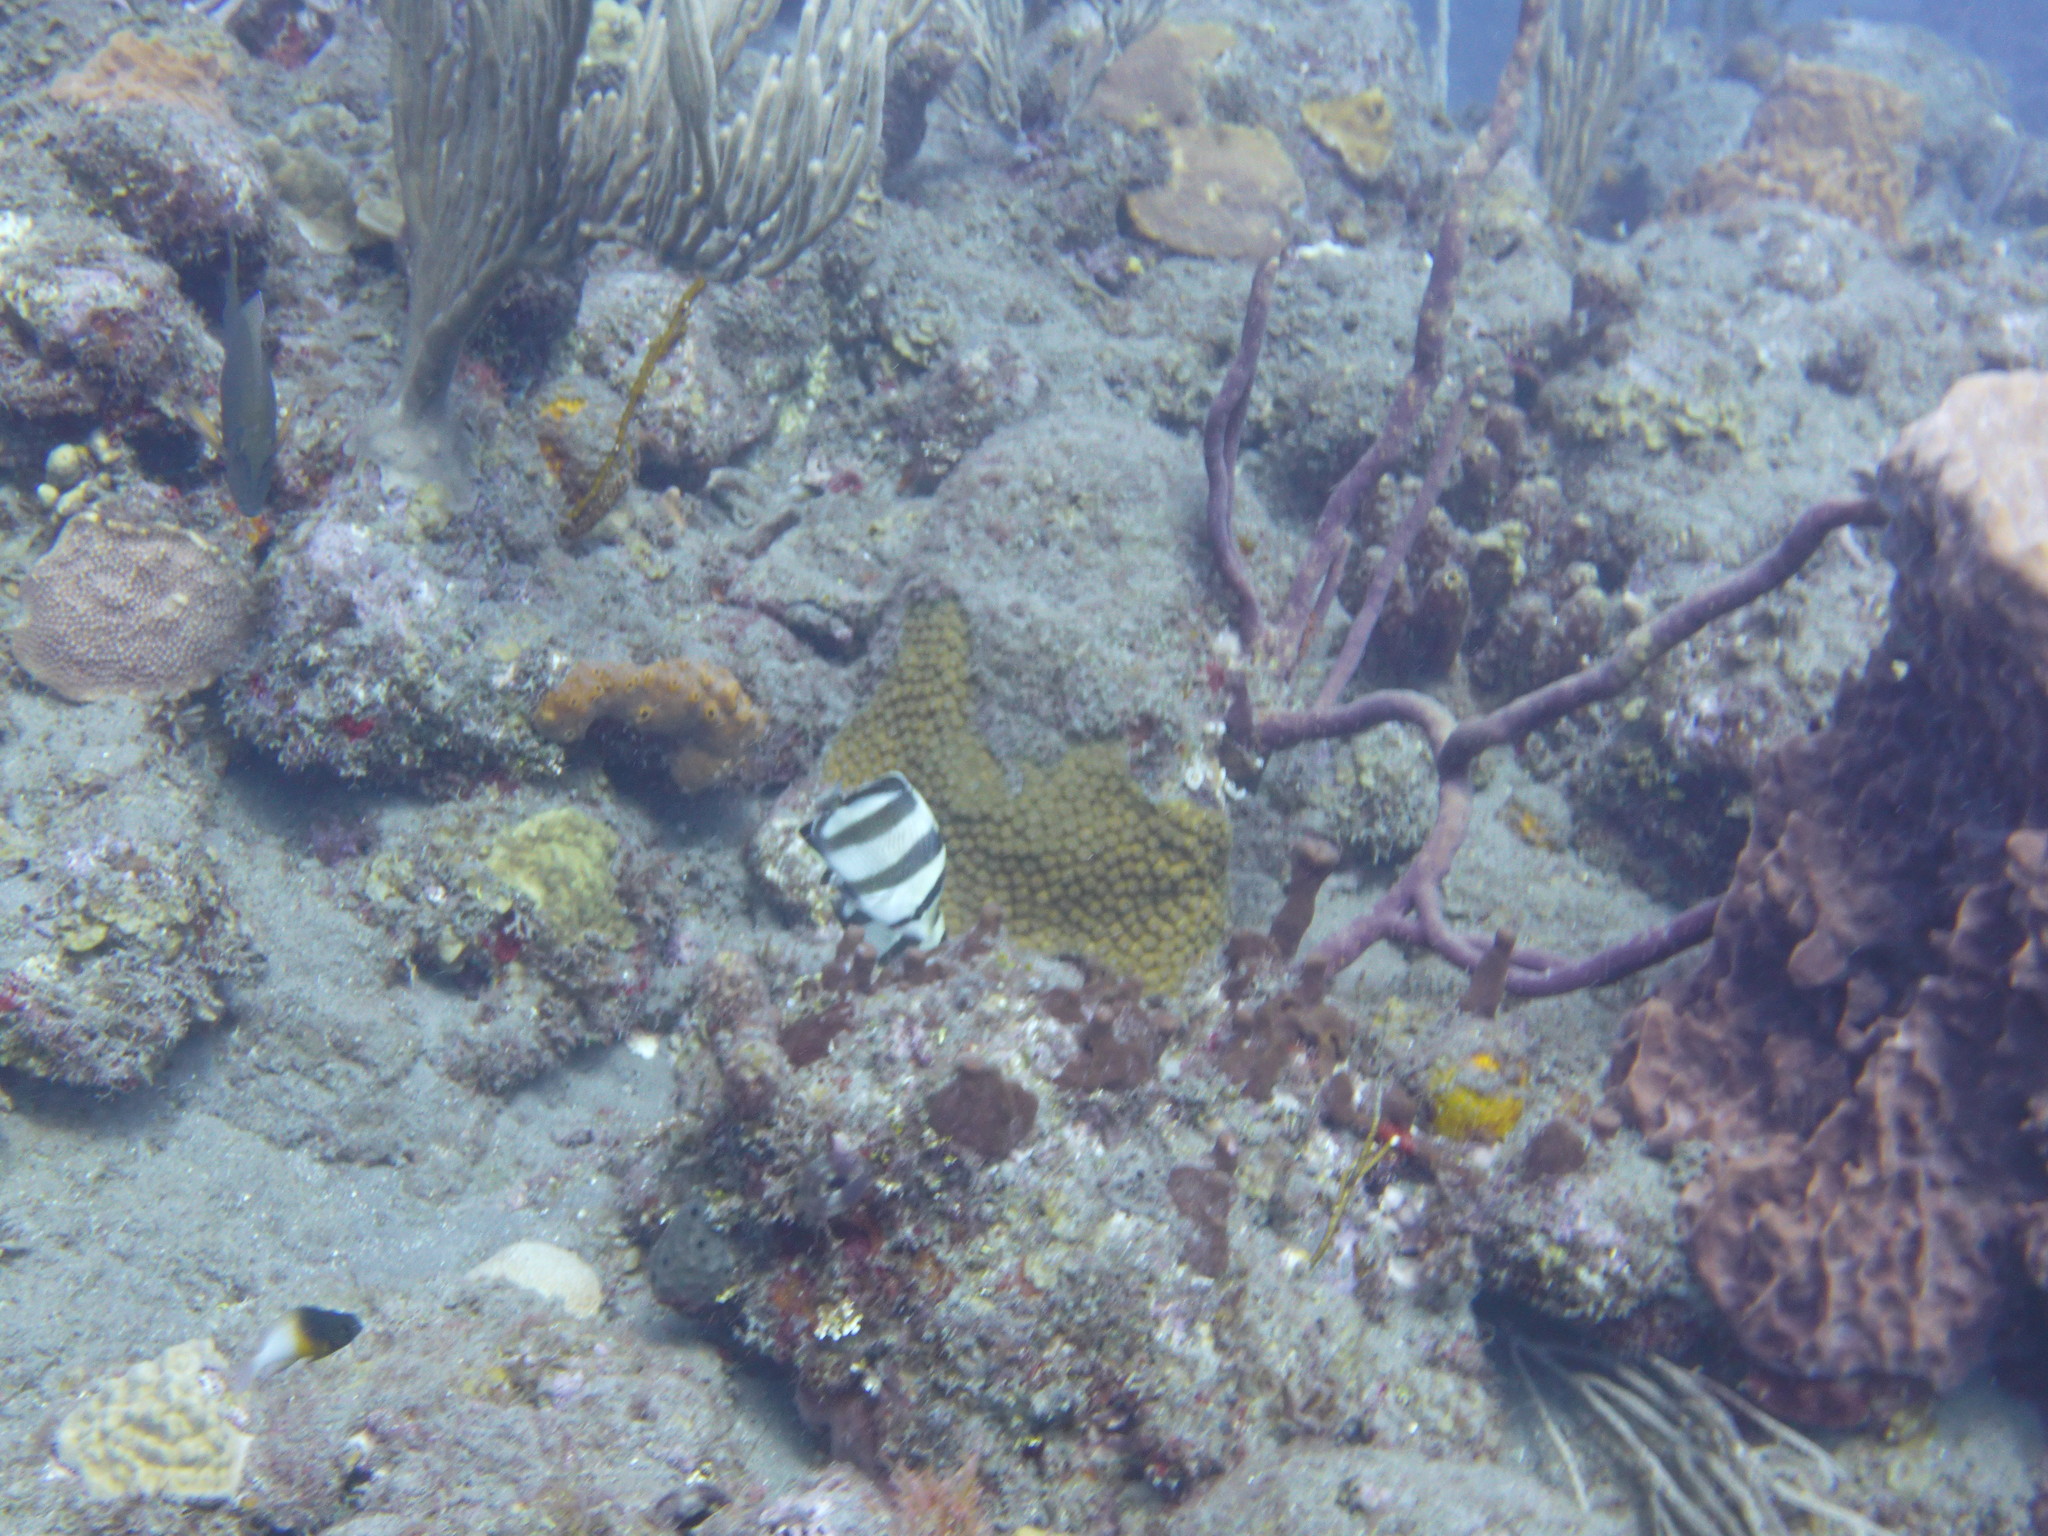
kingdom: Animalia
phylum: Chordata
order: Perciformes
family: Chaetodontidae
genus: Chaetodon
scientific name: Chaetodon striatus
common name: Banded butterflyfish
